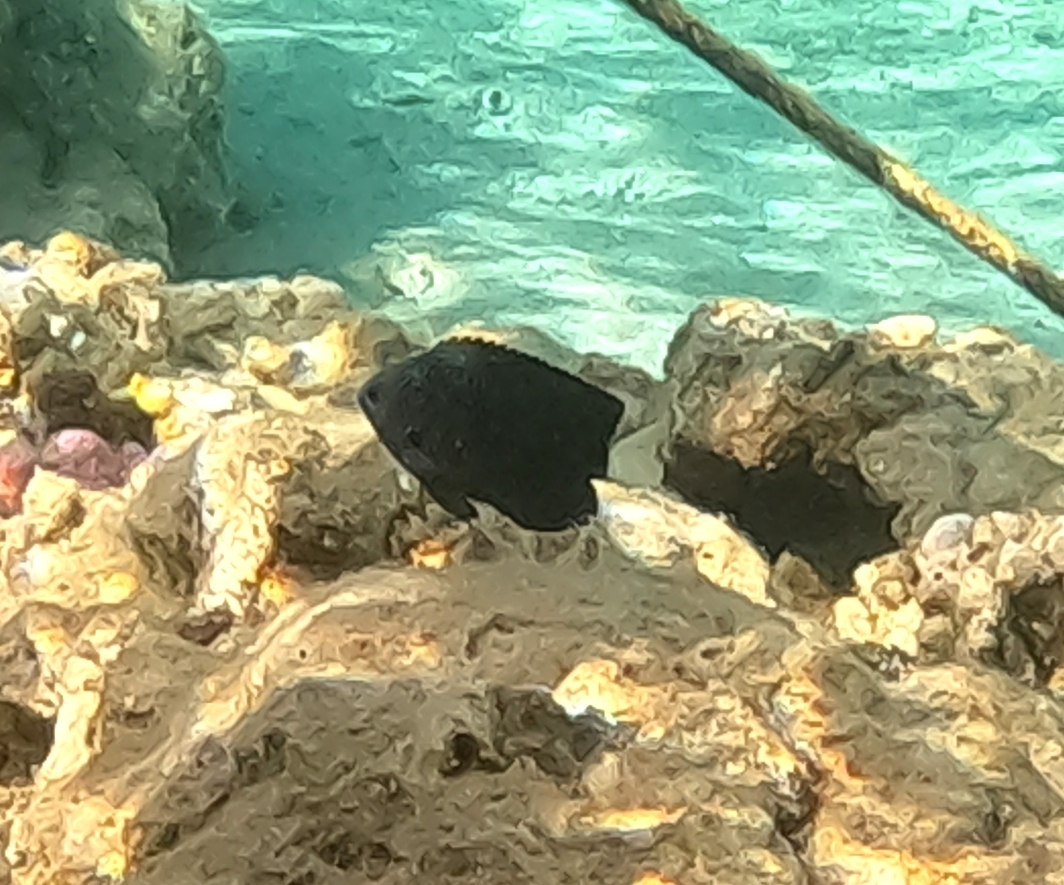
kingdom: Animalia
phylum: Chordata
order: Perciformes
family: Pomacentridae
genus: Pomacentrus
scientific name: Pomacentrus trichrourus
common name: Paletail damsel
